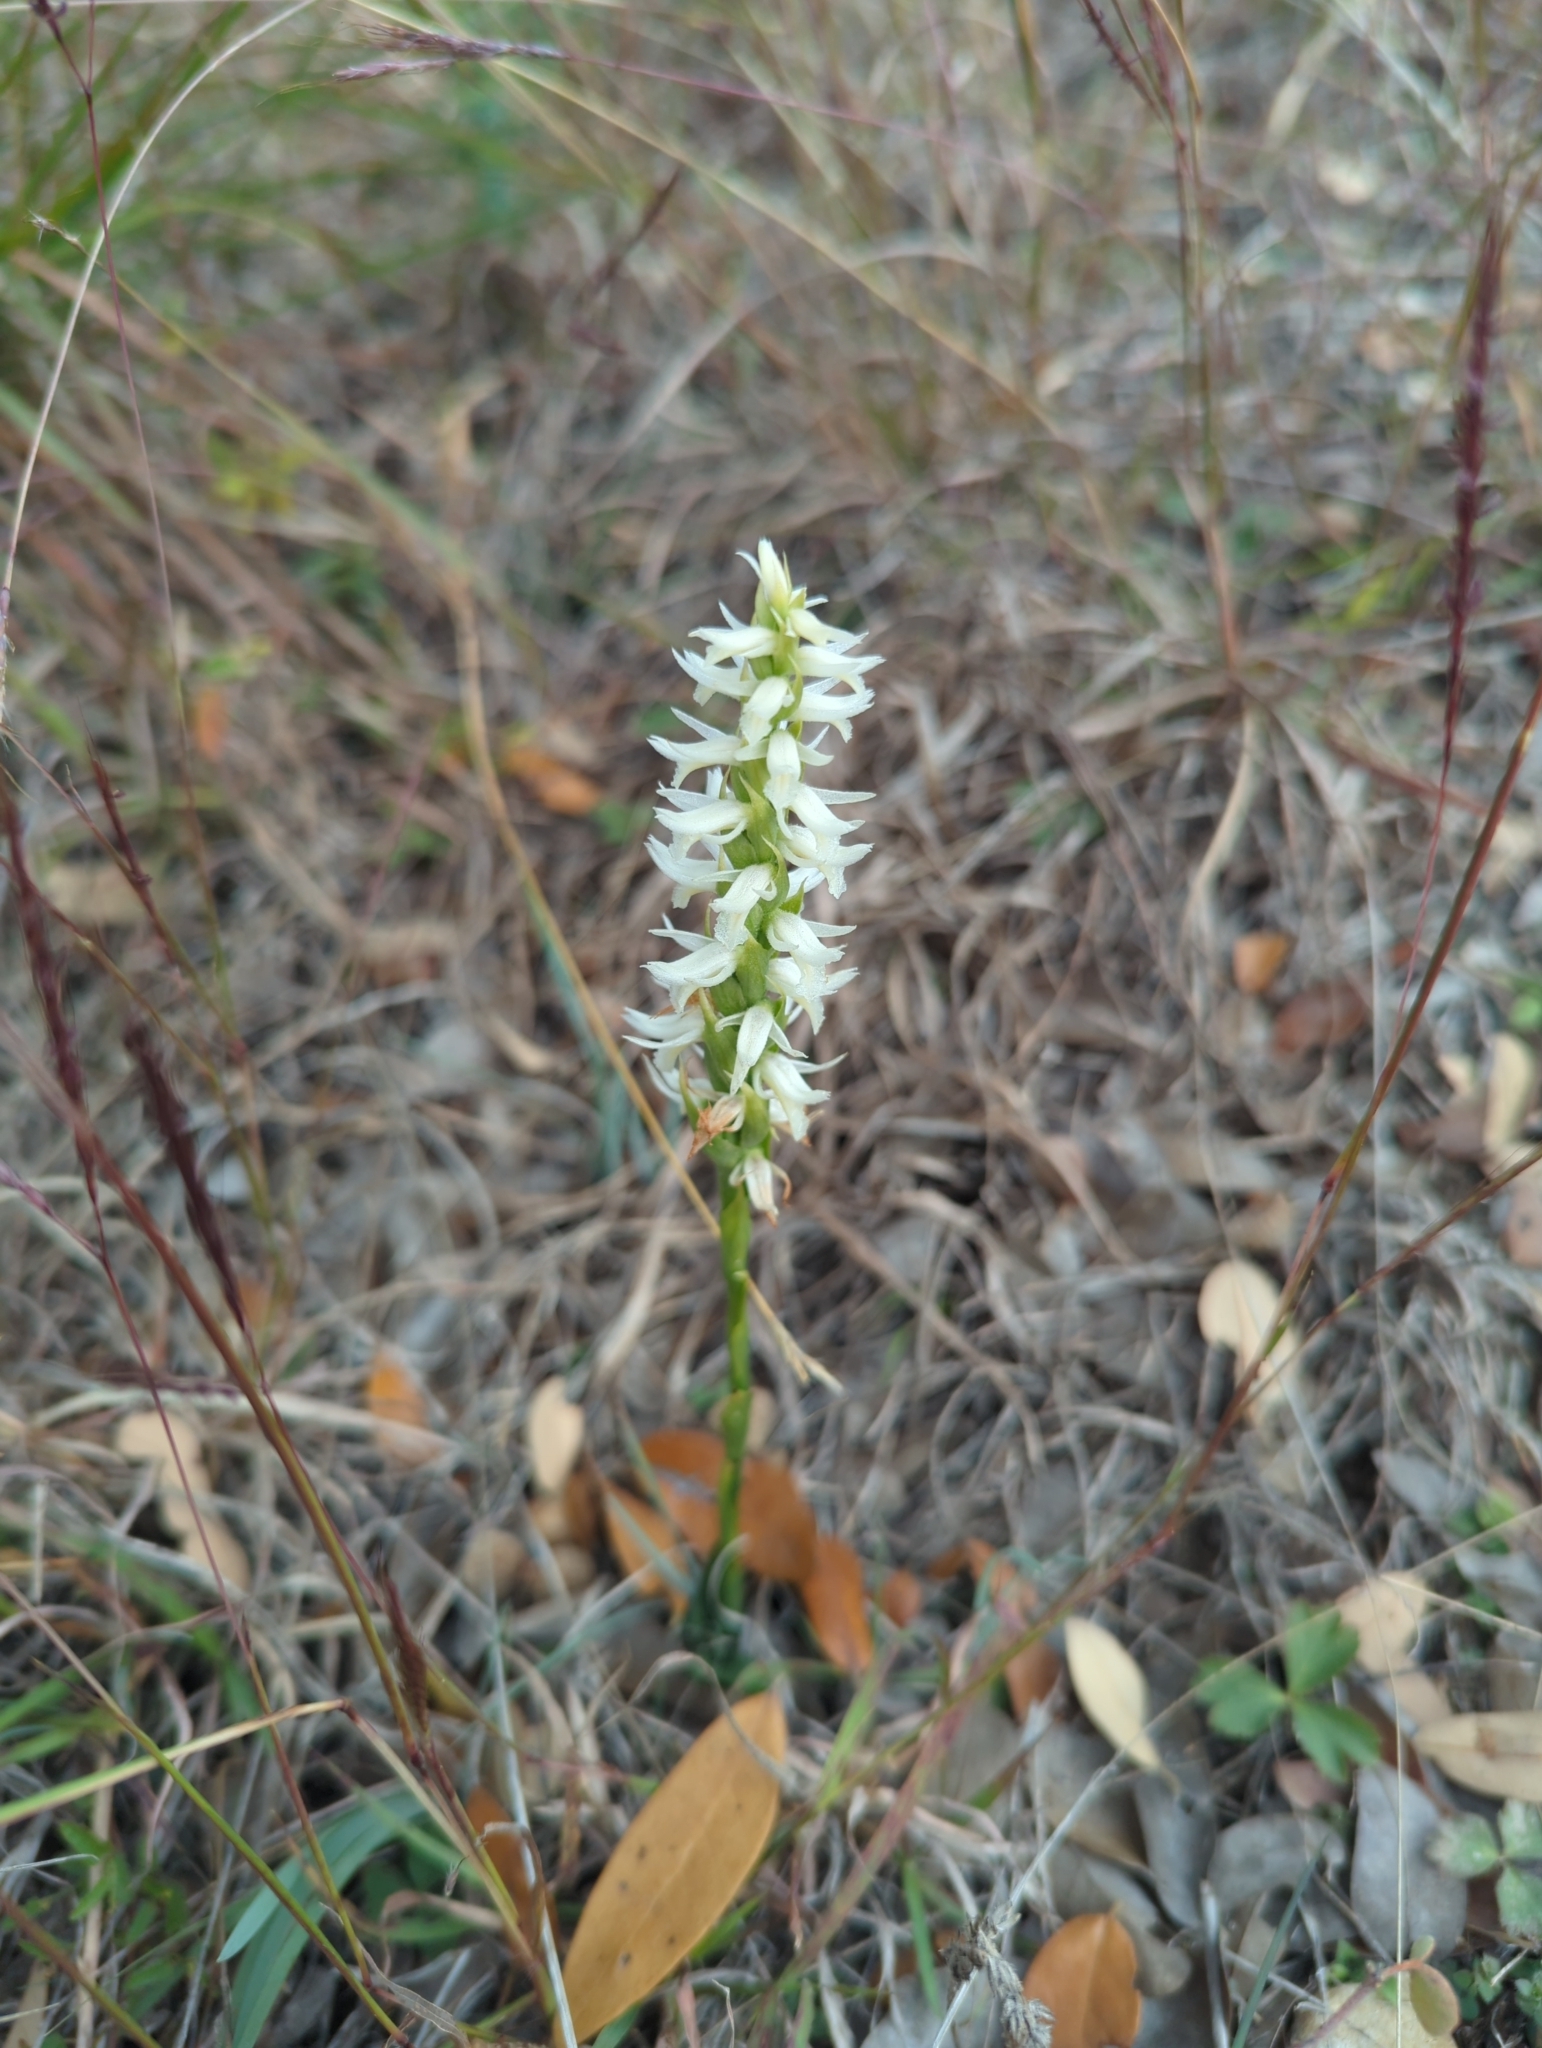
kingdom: Plantae
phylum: Tracheophyta
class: Liliopsida
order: Asparagales
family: Orchidaceae
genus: Spiranthes
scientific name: Spiranthes magnicamporum
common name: Great plains ladies'-tresses
